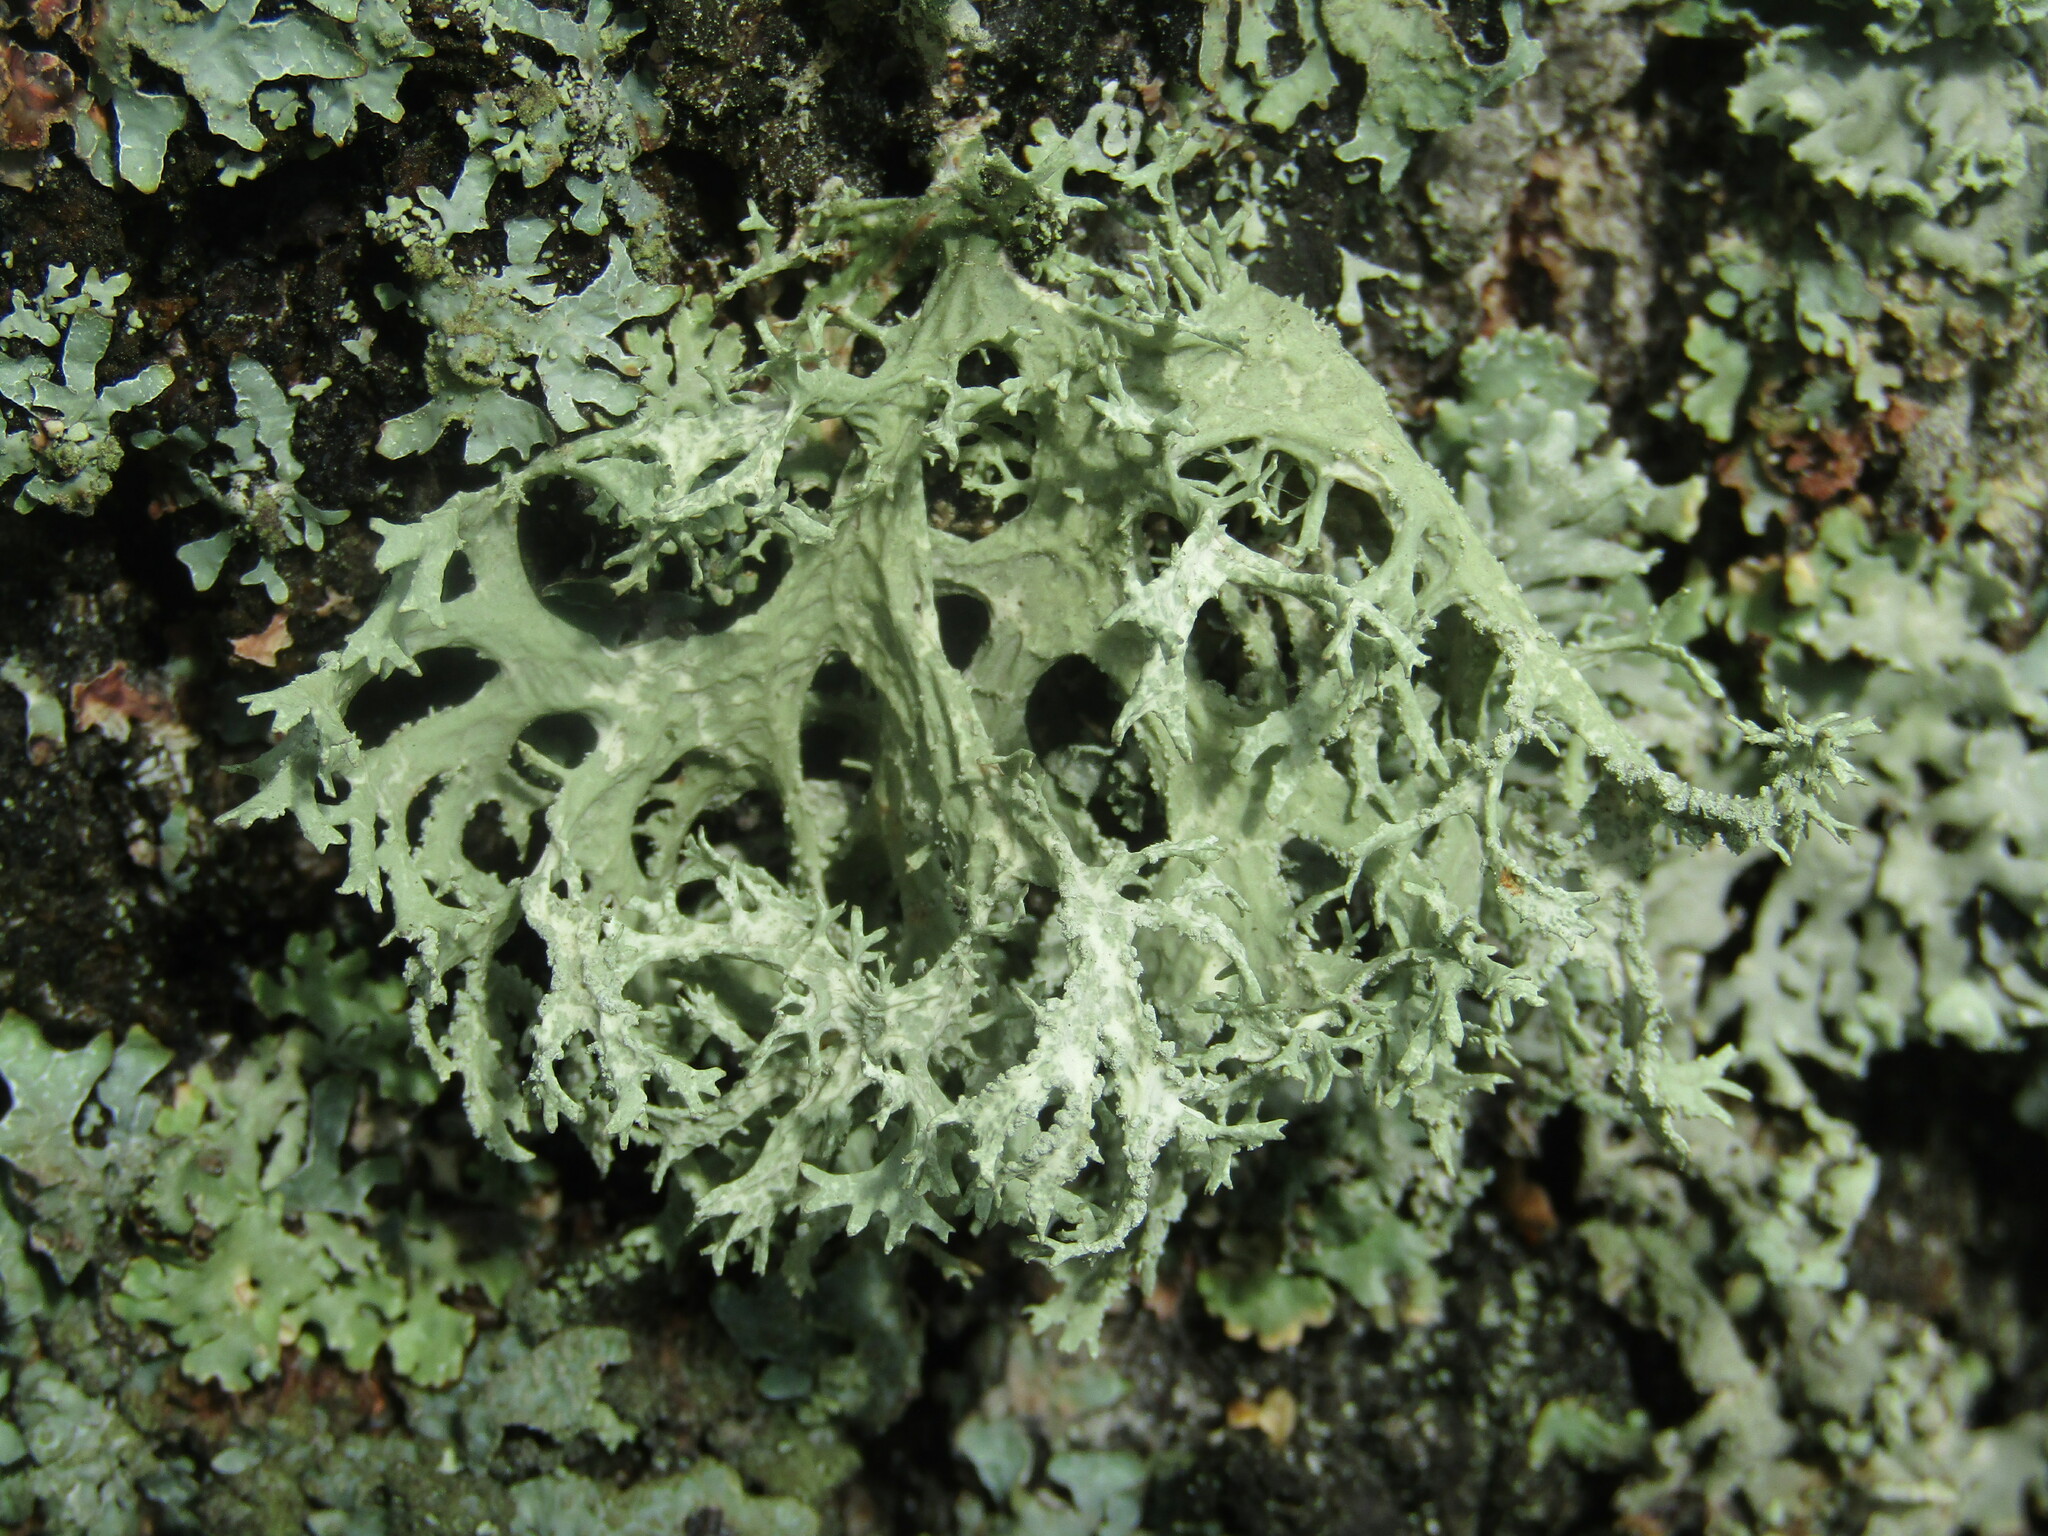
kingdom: Fungi
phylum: Ascomycota
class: Lecanoromycetes
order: Lecanorales
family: Parmeliaceae
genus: Evernia
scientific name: Evernia prunastri
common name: Oak moss
